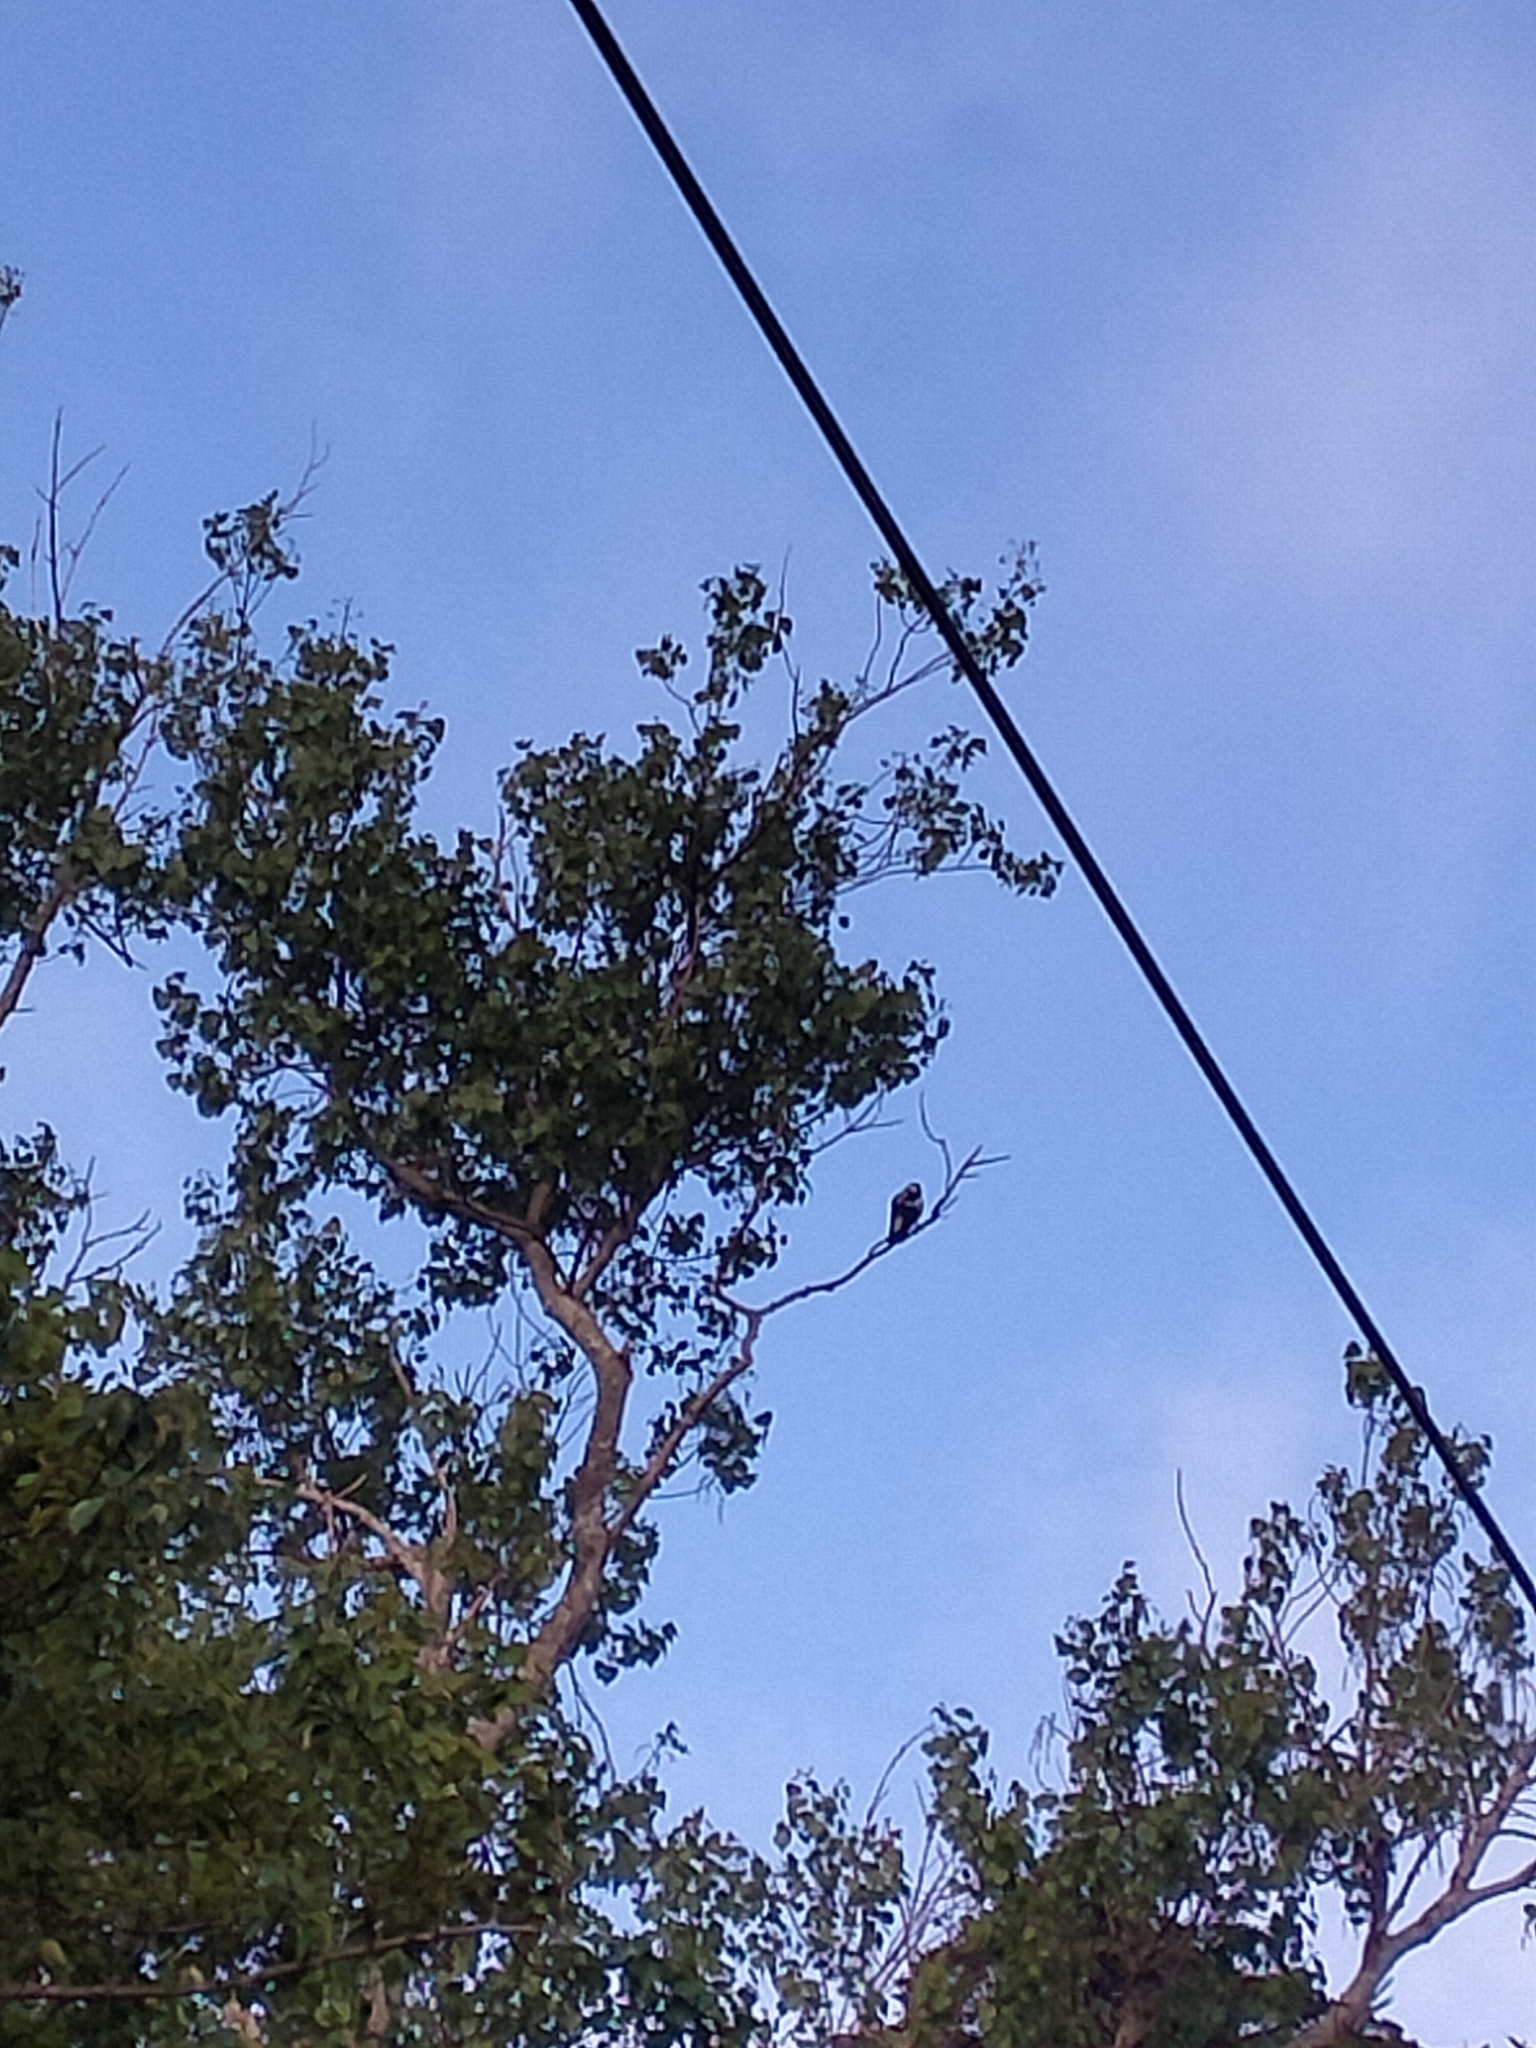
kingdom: Animalia
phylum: Chordata
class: Aves
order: Passeriformes
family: Cracticidae
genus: Gymnorhina
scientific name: Gymnorhina tibicen
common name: Australian magpie
